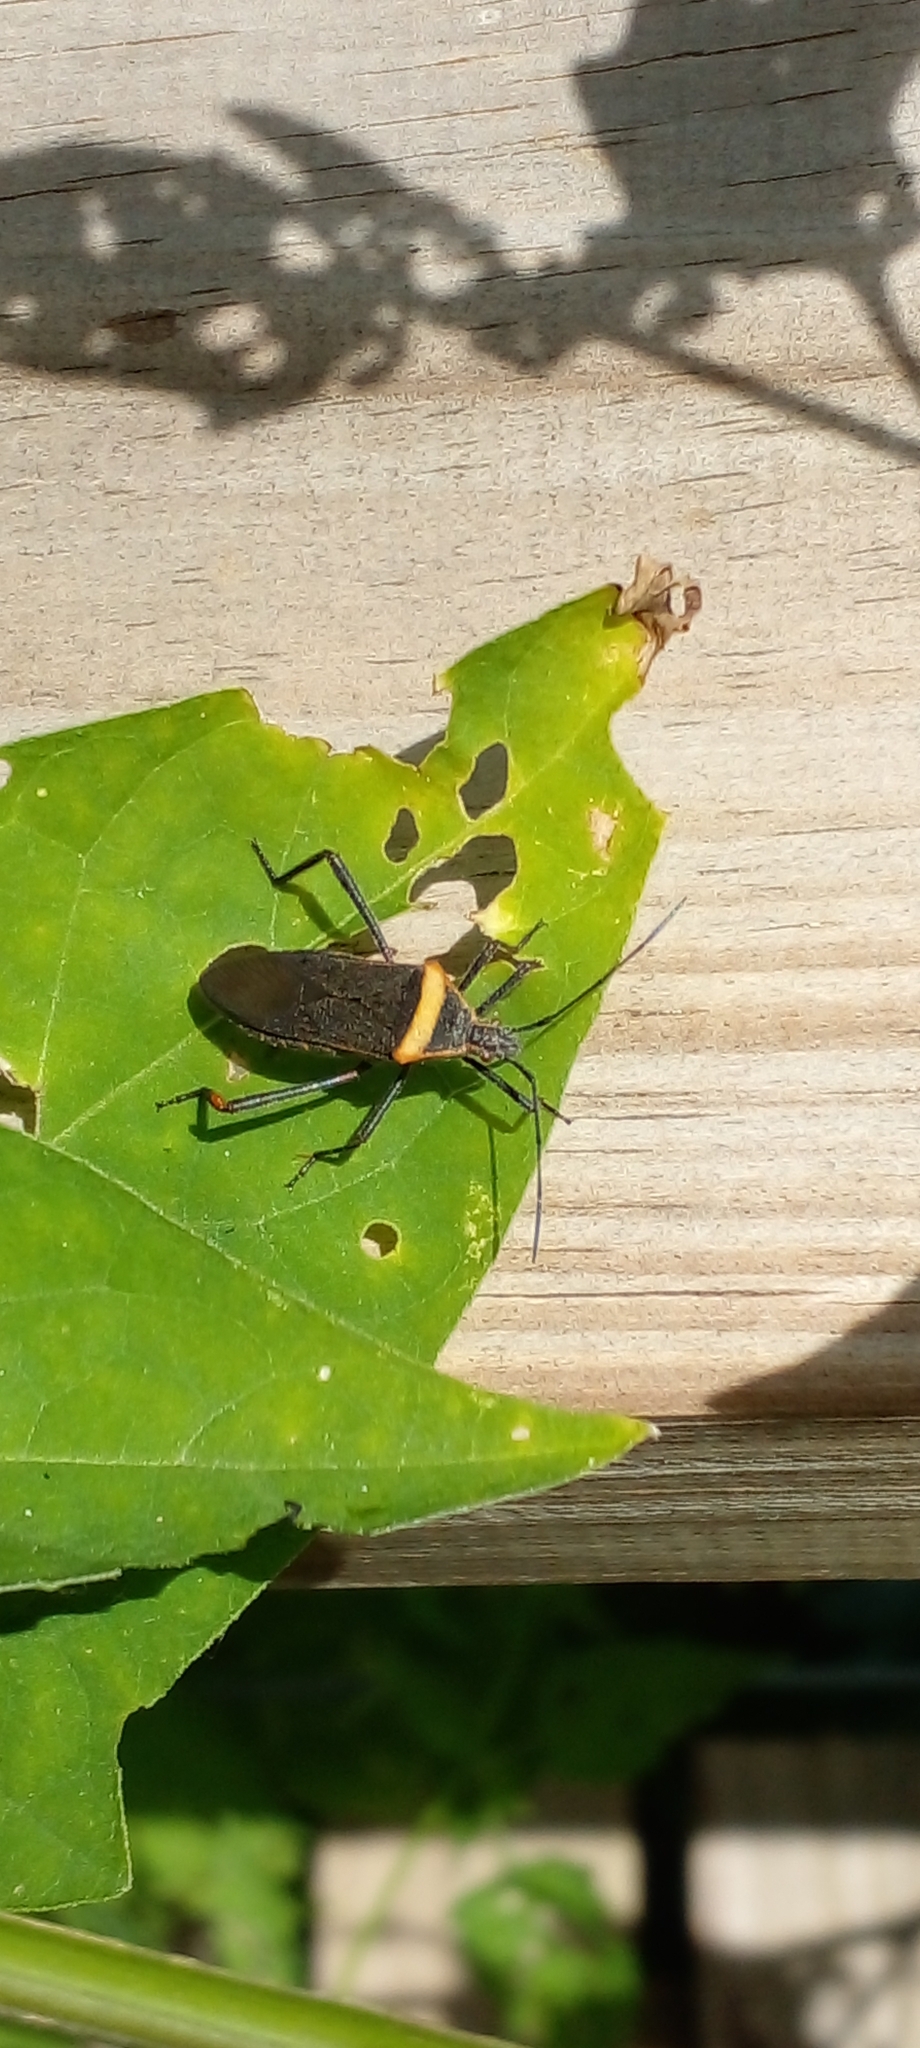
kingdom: Animalia
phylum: Arthropoda
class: Insecta
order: Hemiptera
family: Coreidae
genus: Phthiacnemia
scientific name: Phthiacnemia picta
